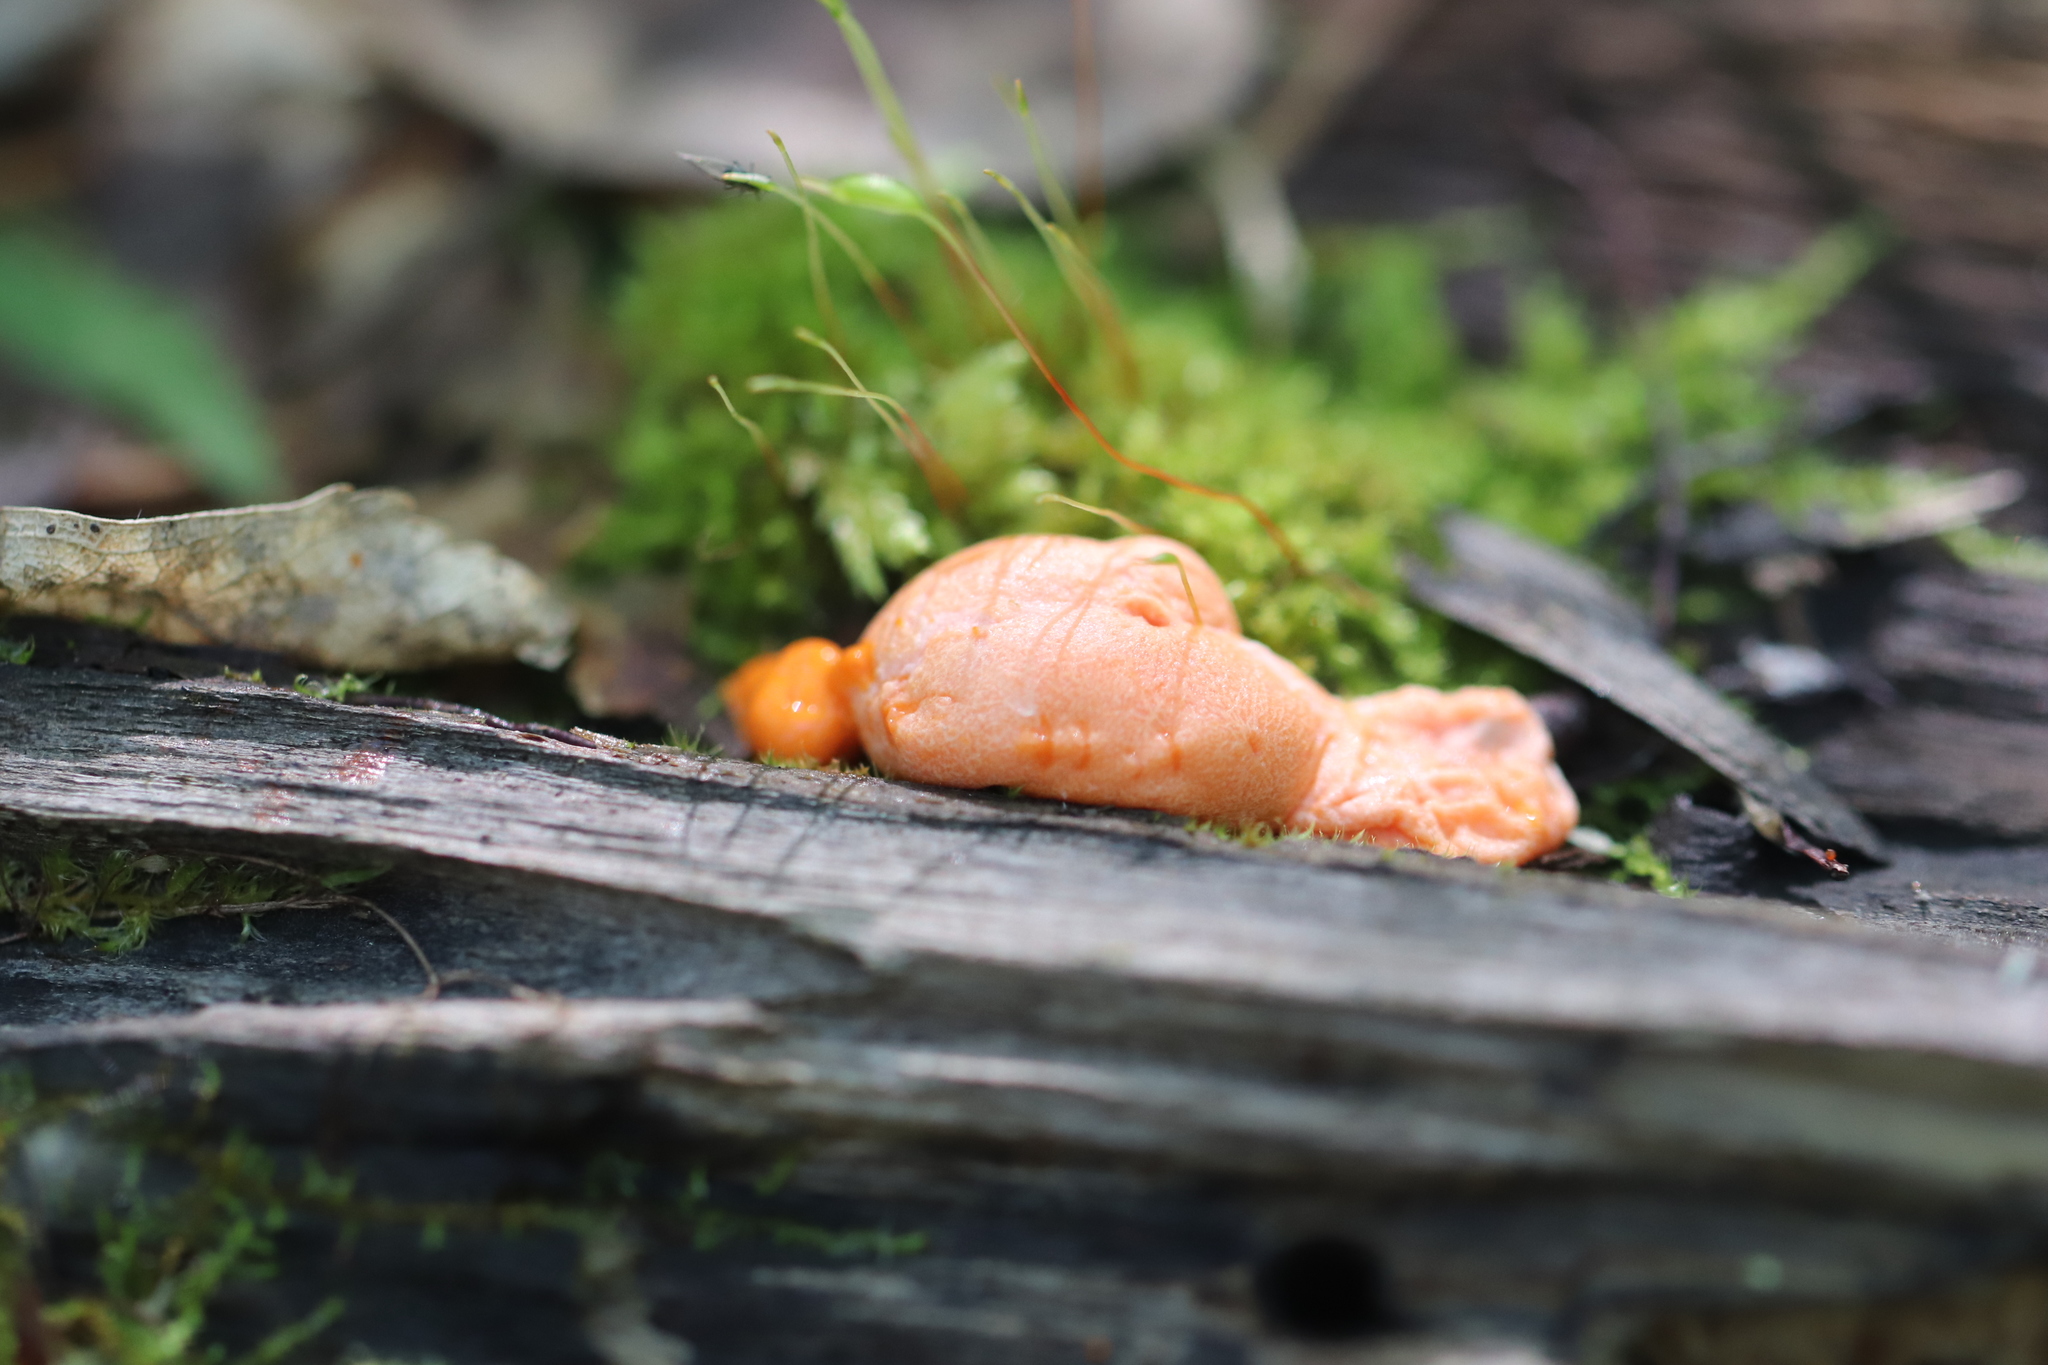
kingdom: Protozoa
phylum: Mycetozoa
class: Myxomycetes
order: Cribrariales
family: Tubiferaceae
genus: Lycogala
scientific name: Lycogala epidendrum
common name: Wolf's milk
